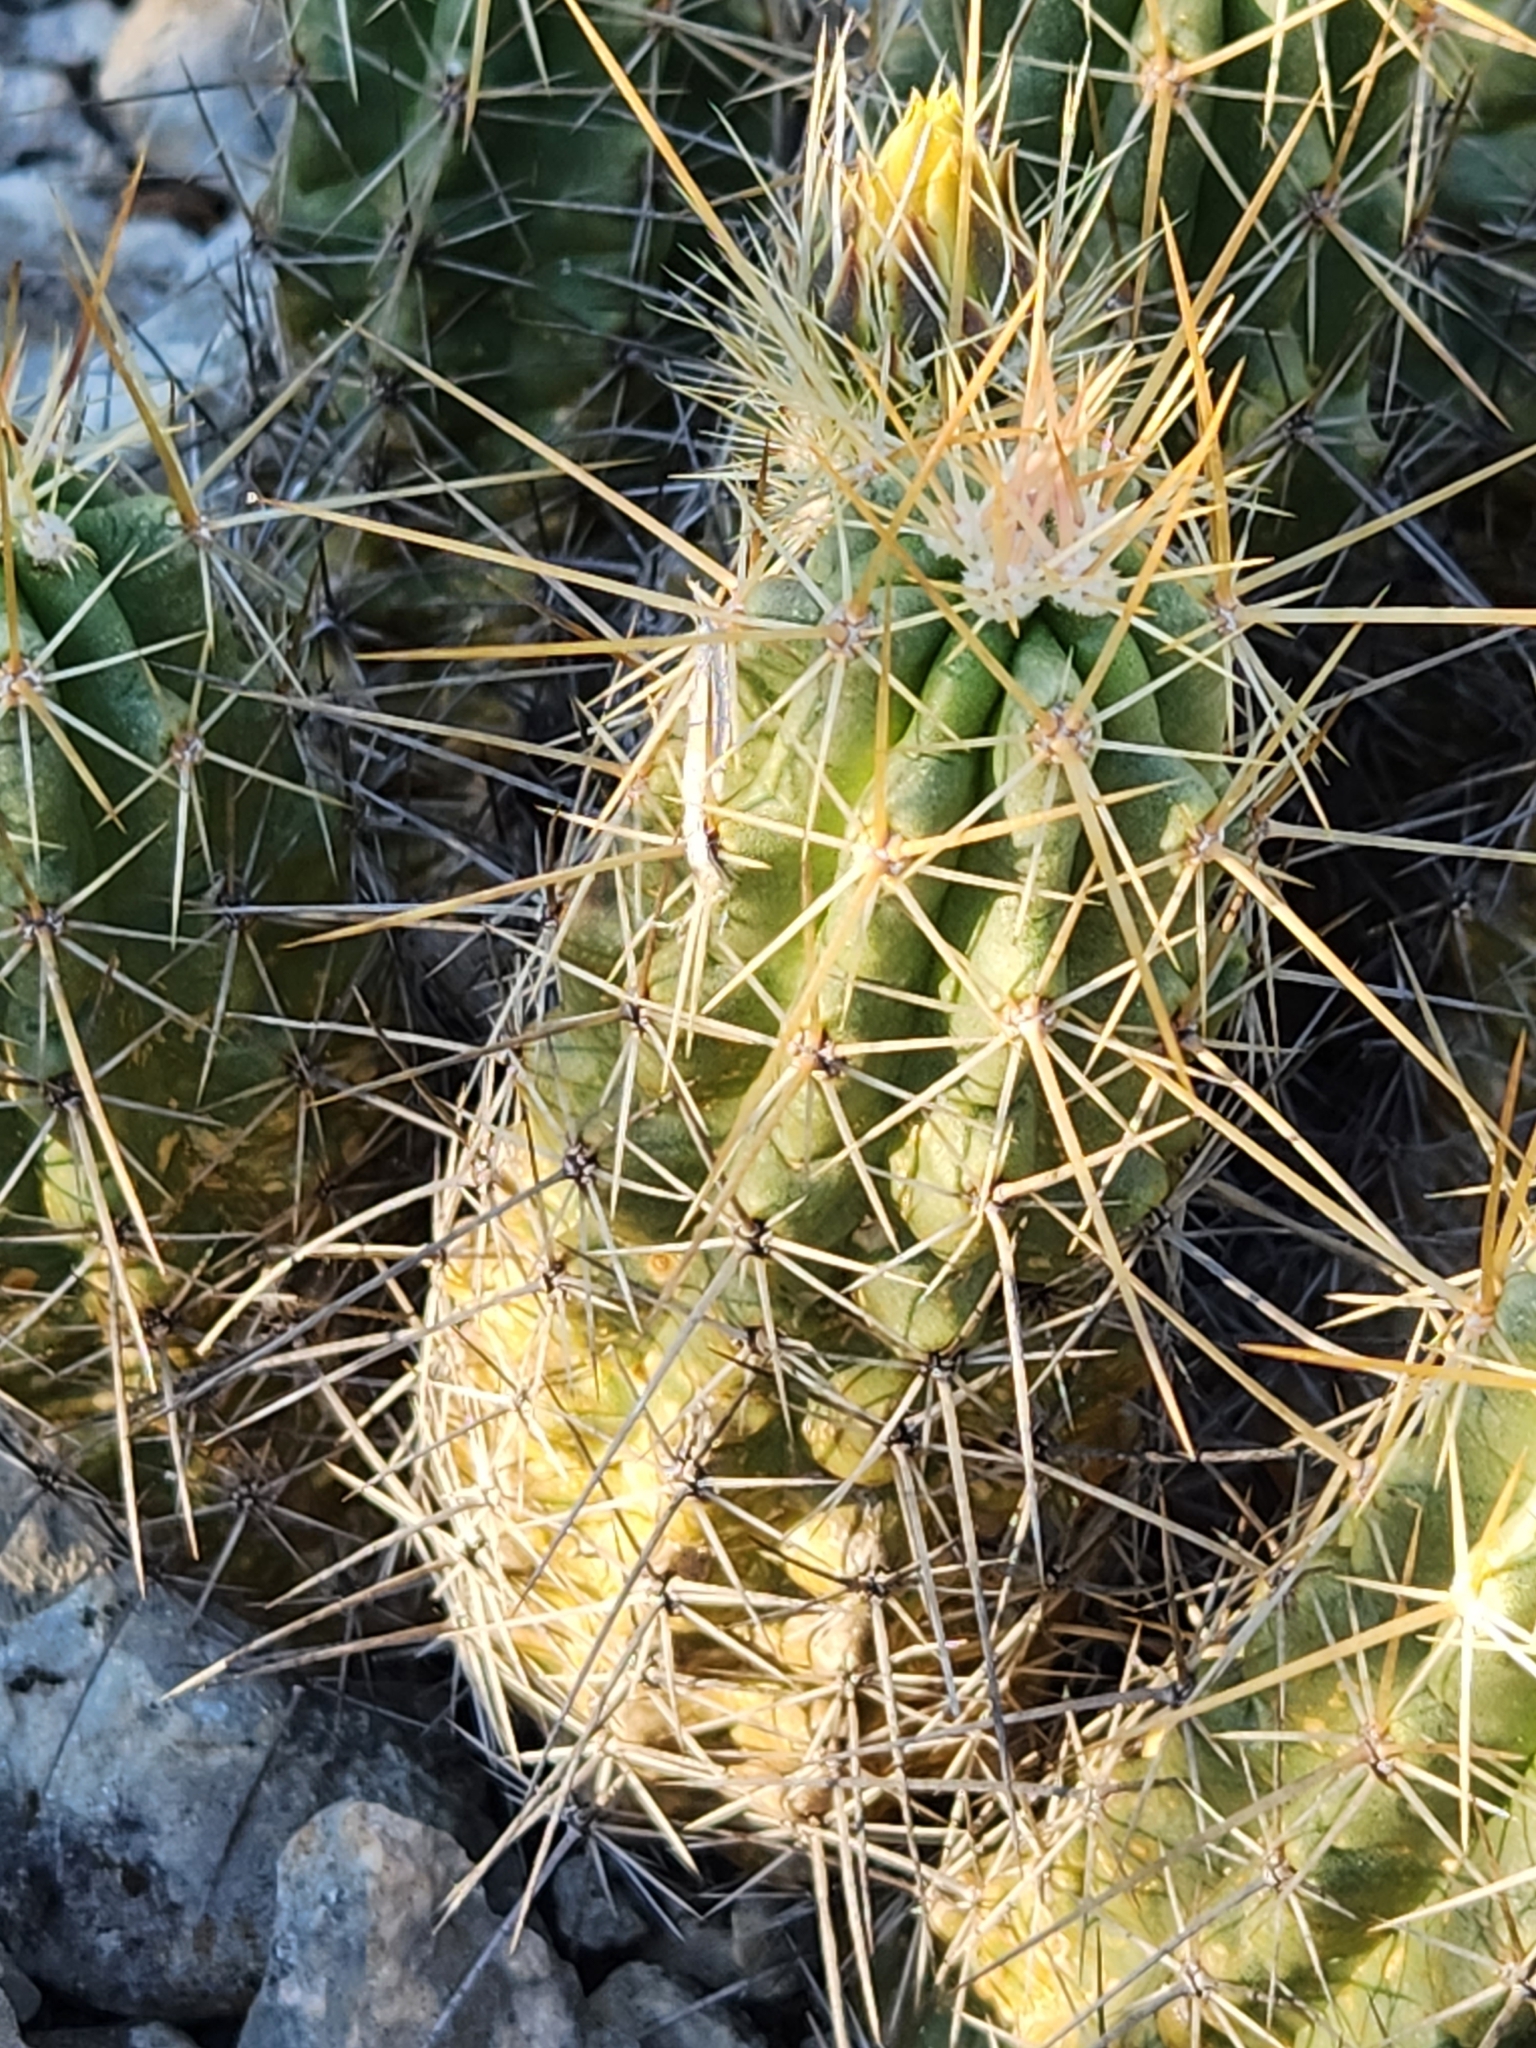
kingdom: Plantae
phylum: Tracheophyta
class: Magnoliopsida
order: Caryophyllales
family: Cactaceae
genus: Echinocereus
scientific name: Echinocereus enneacanthus
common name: Pitaya
